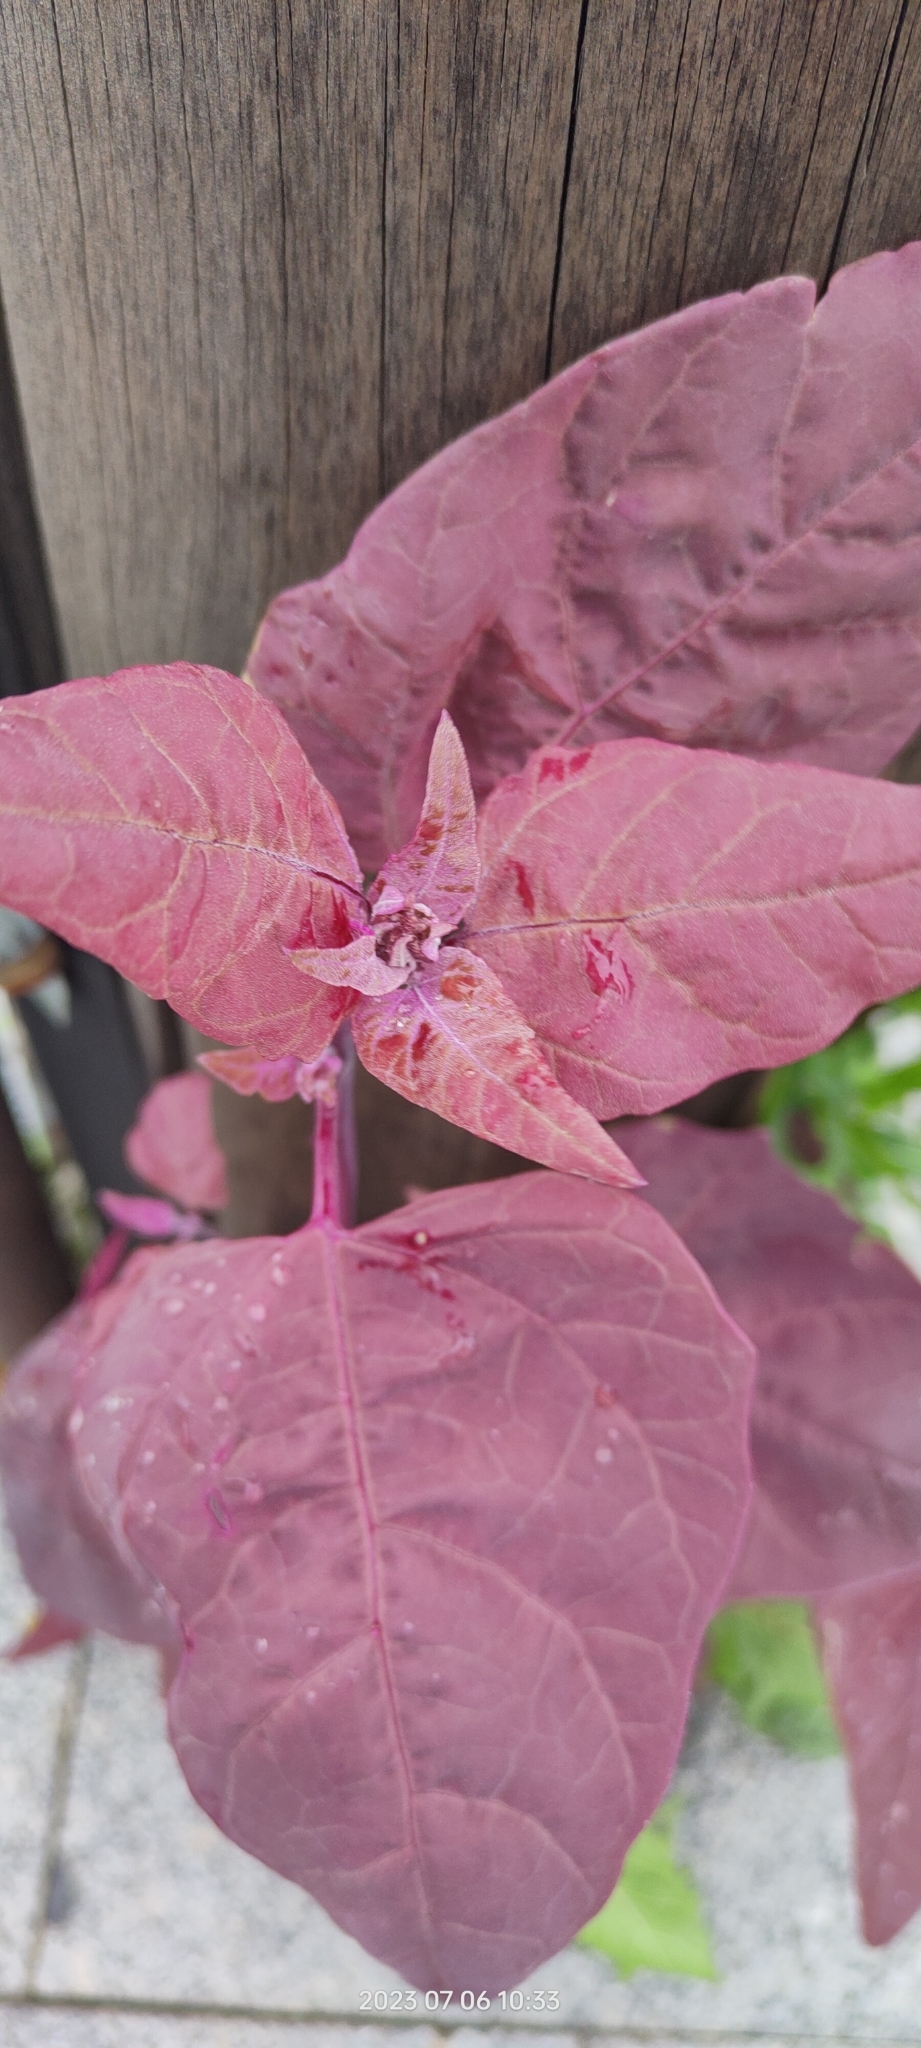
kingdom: Plantae
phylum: Tracheophyta
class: Magnoliopsida
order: Caryophyllales
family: Amaranthaceae
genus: Atriplex
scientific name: Atriplex hortensis
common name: Garden orache
